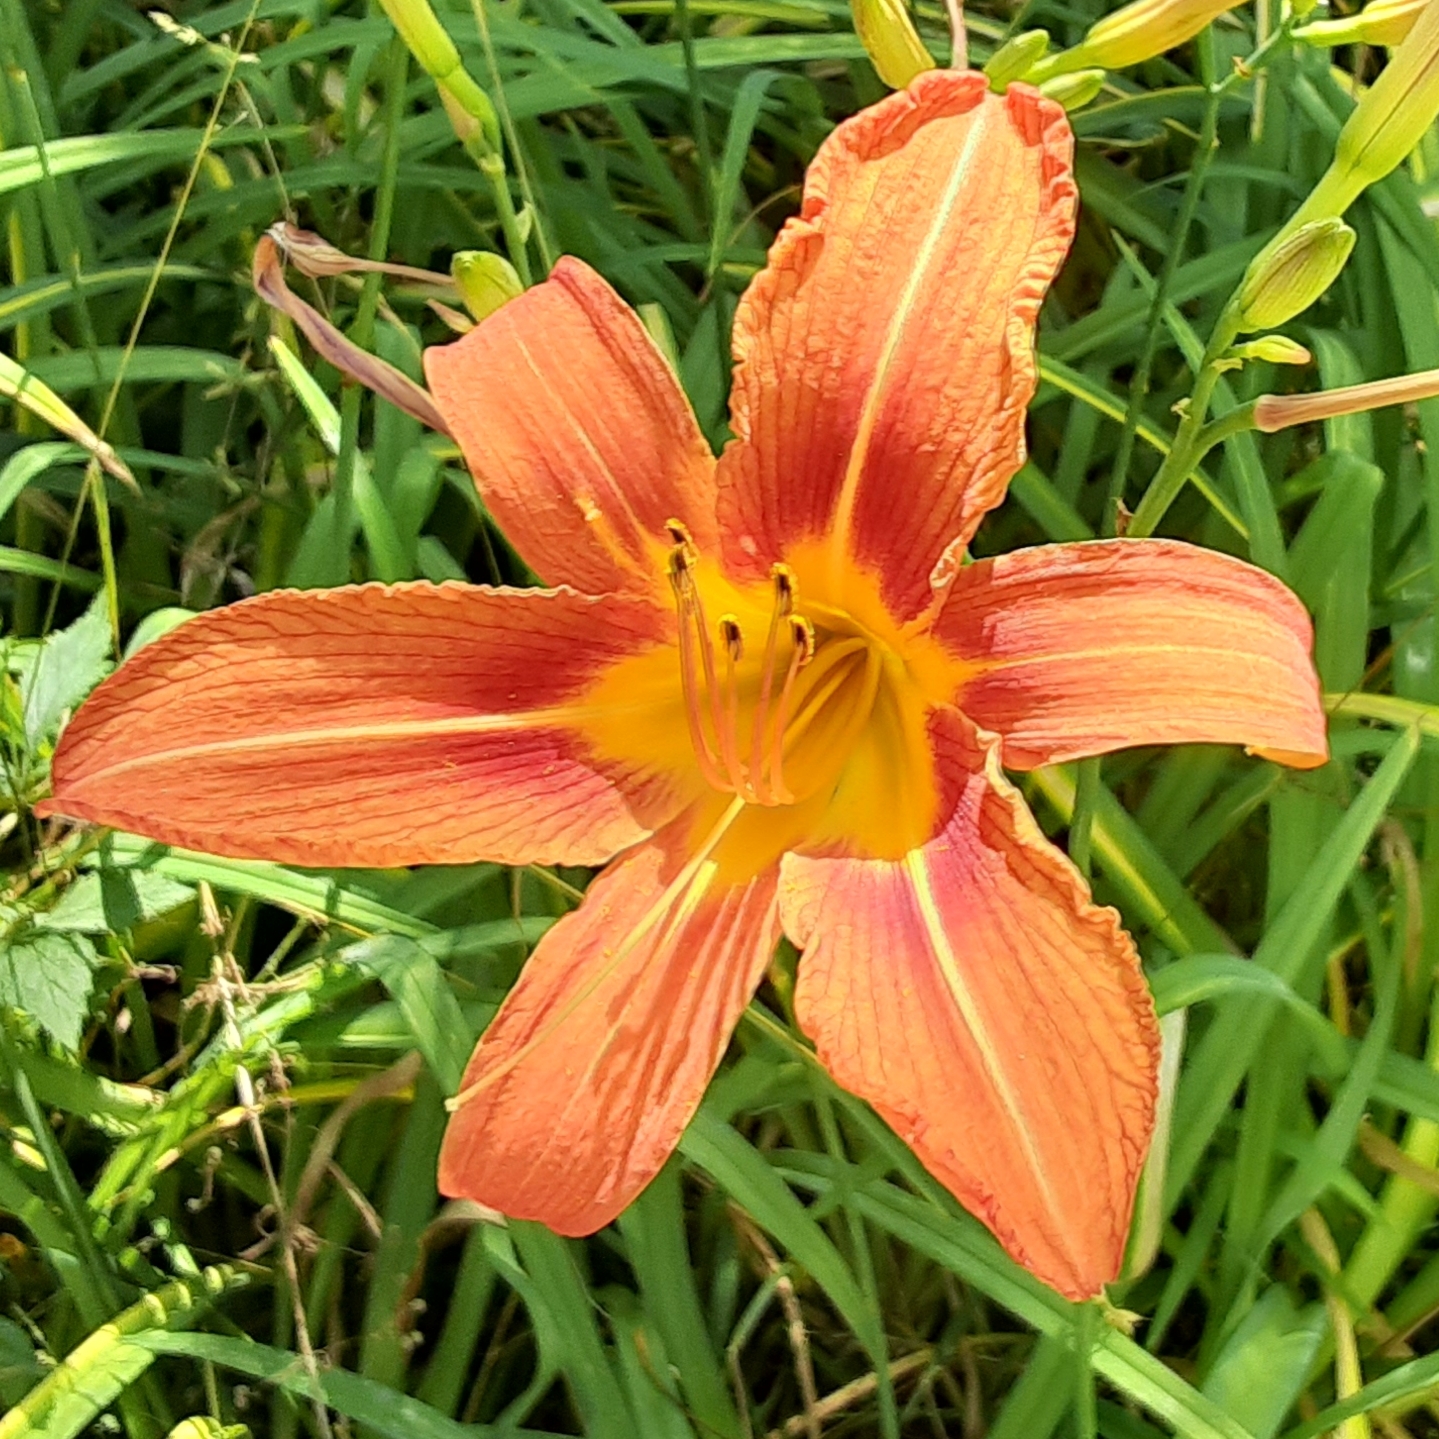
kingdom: Plantae
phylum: Tracheophyta
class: Liliopsida
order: Asparagales
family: Asphodelaceae
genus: Hemerocallis
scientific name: Hemerocallis fulva
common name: Orange day-lily
